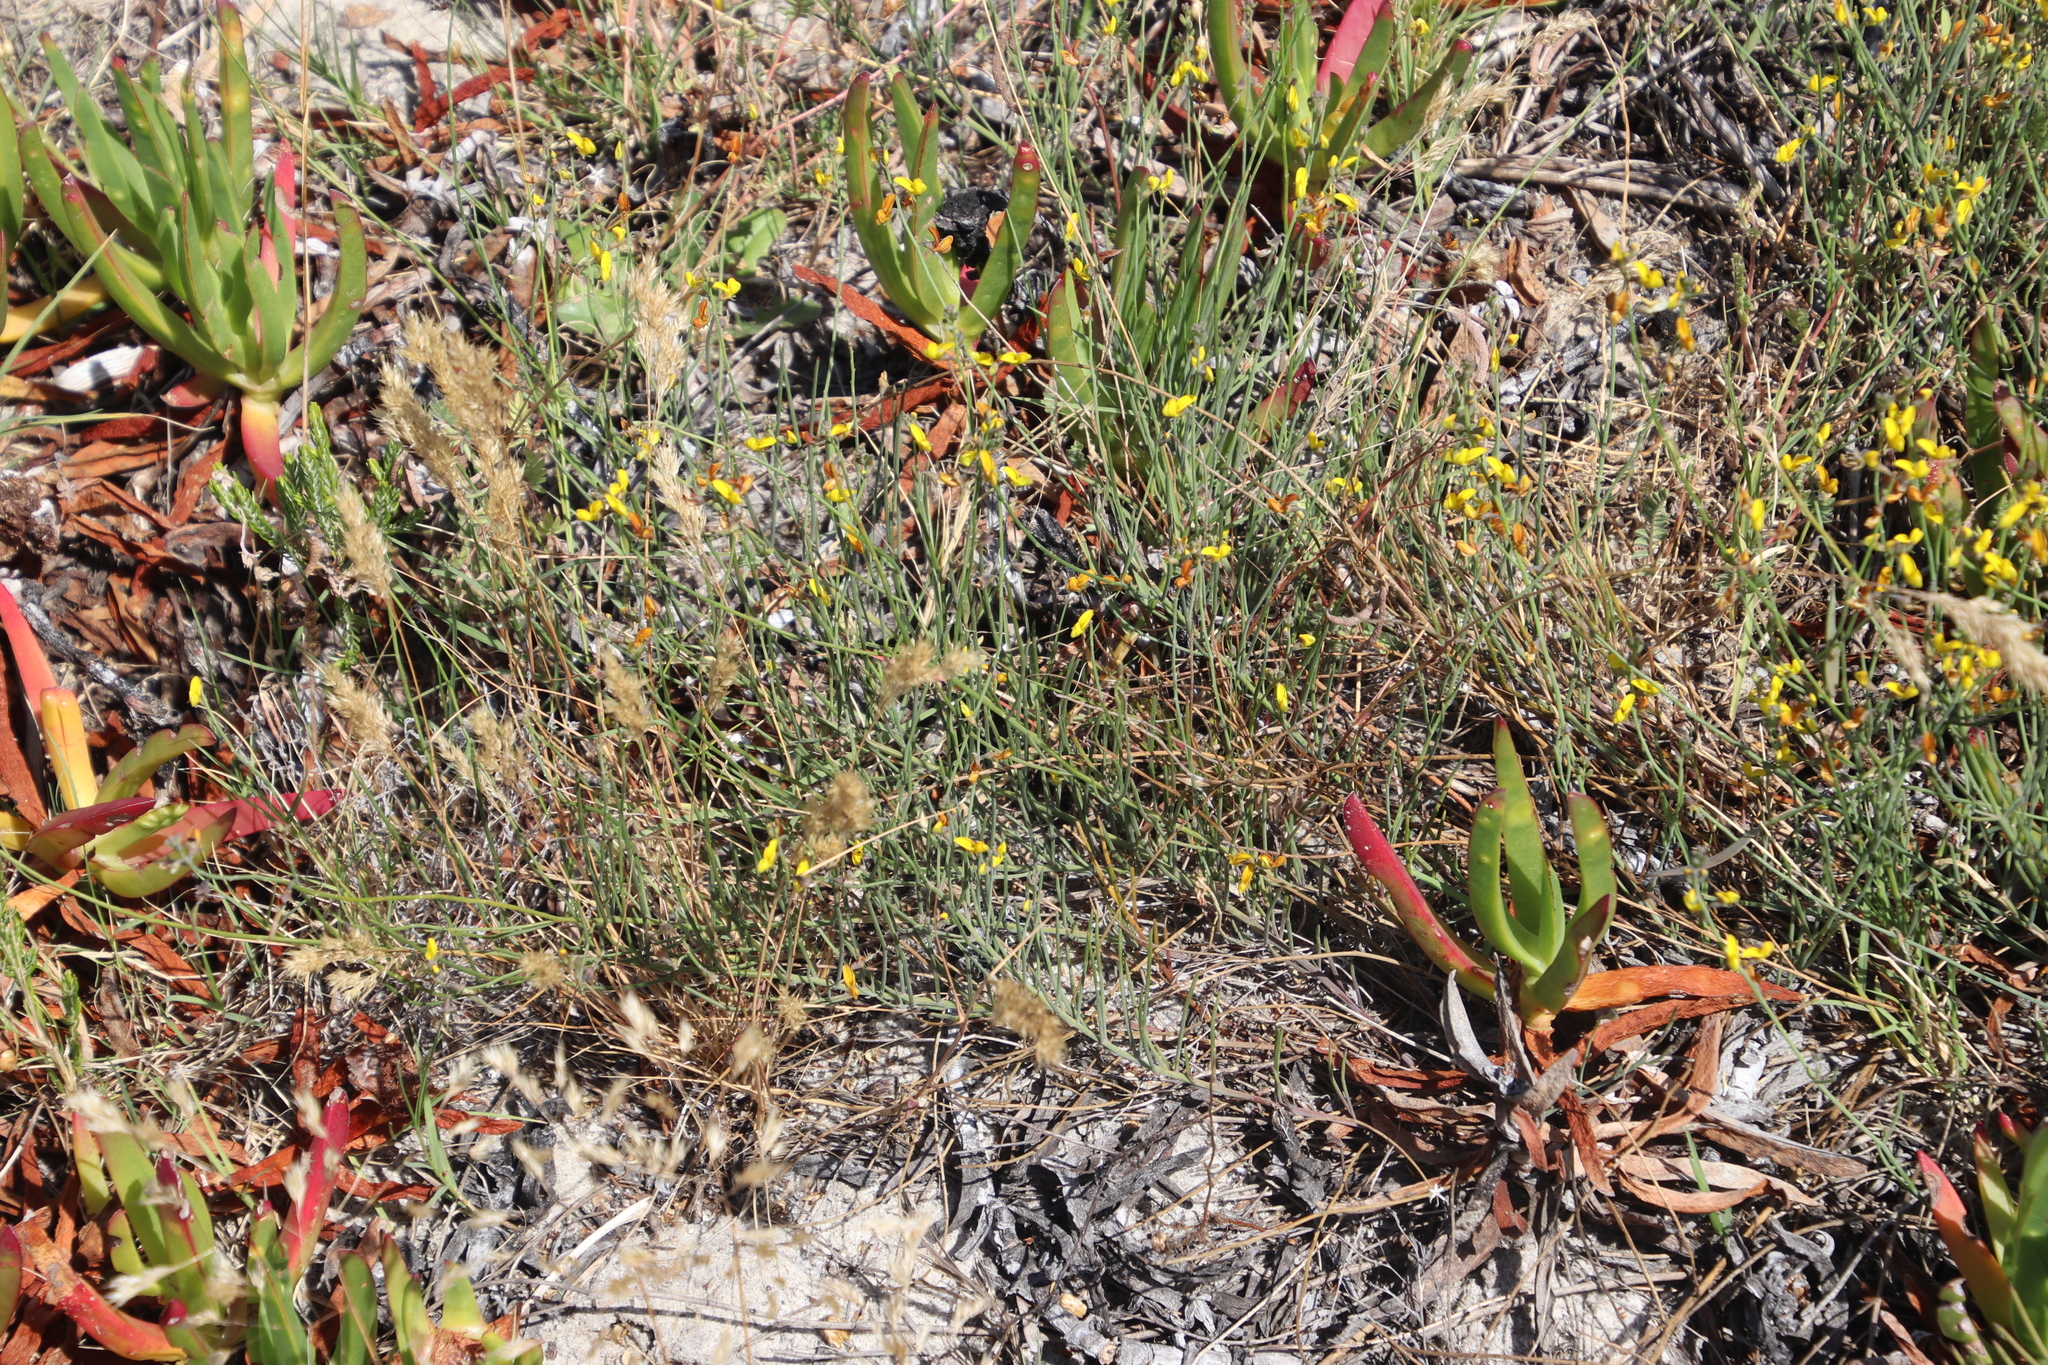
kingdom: Plantae
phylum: Tracheophyta
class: Magnoliopsida
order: Fabales
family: Fabaceae
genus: Lebeckia
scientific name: Lebeckia contaminata
